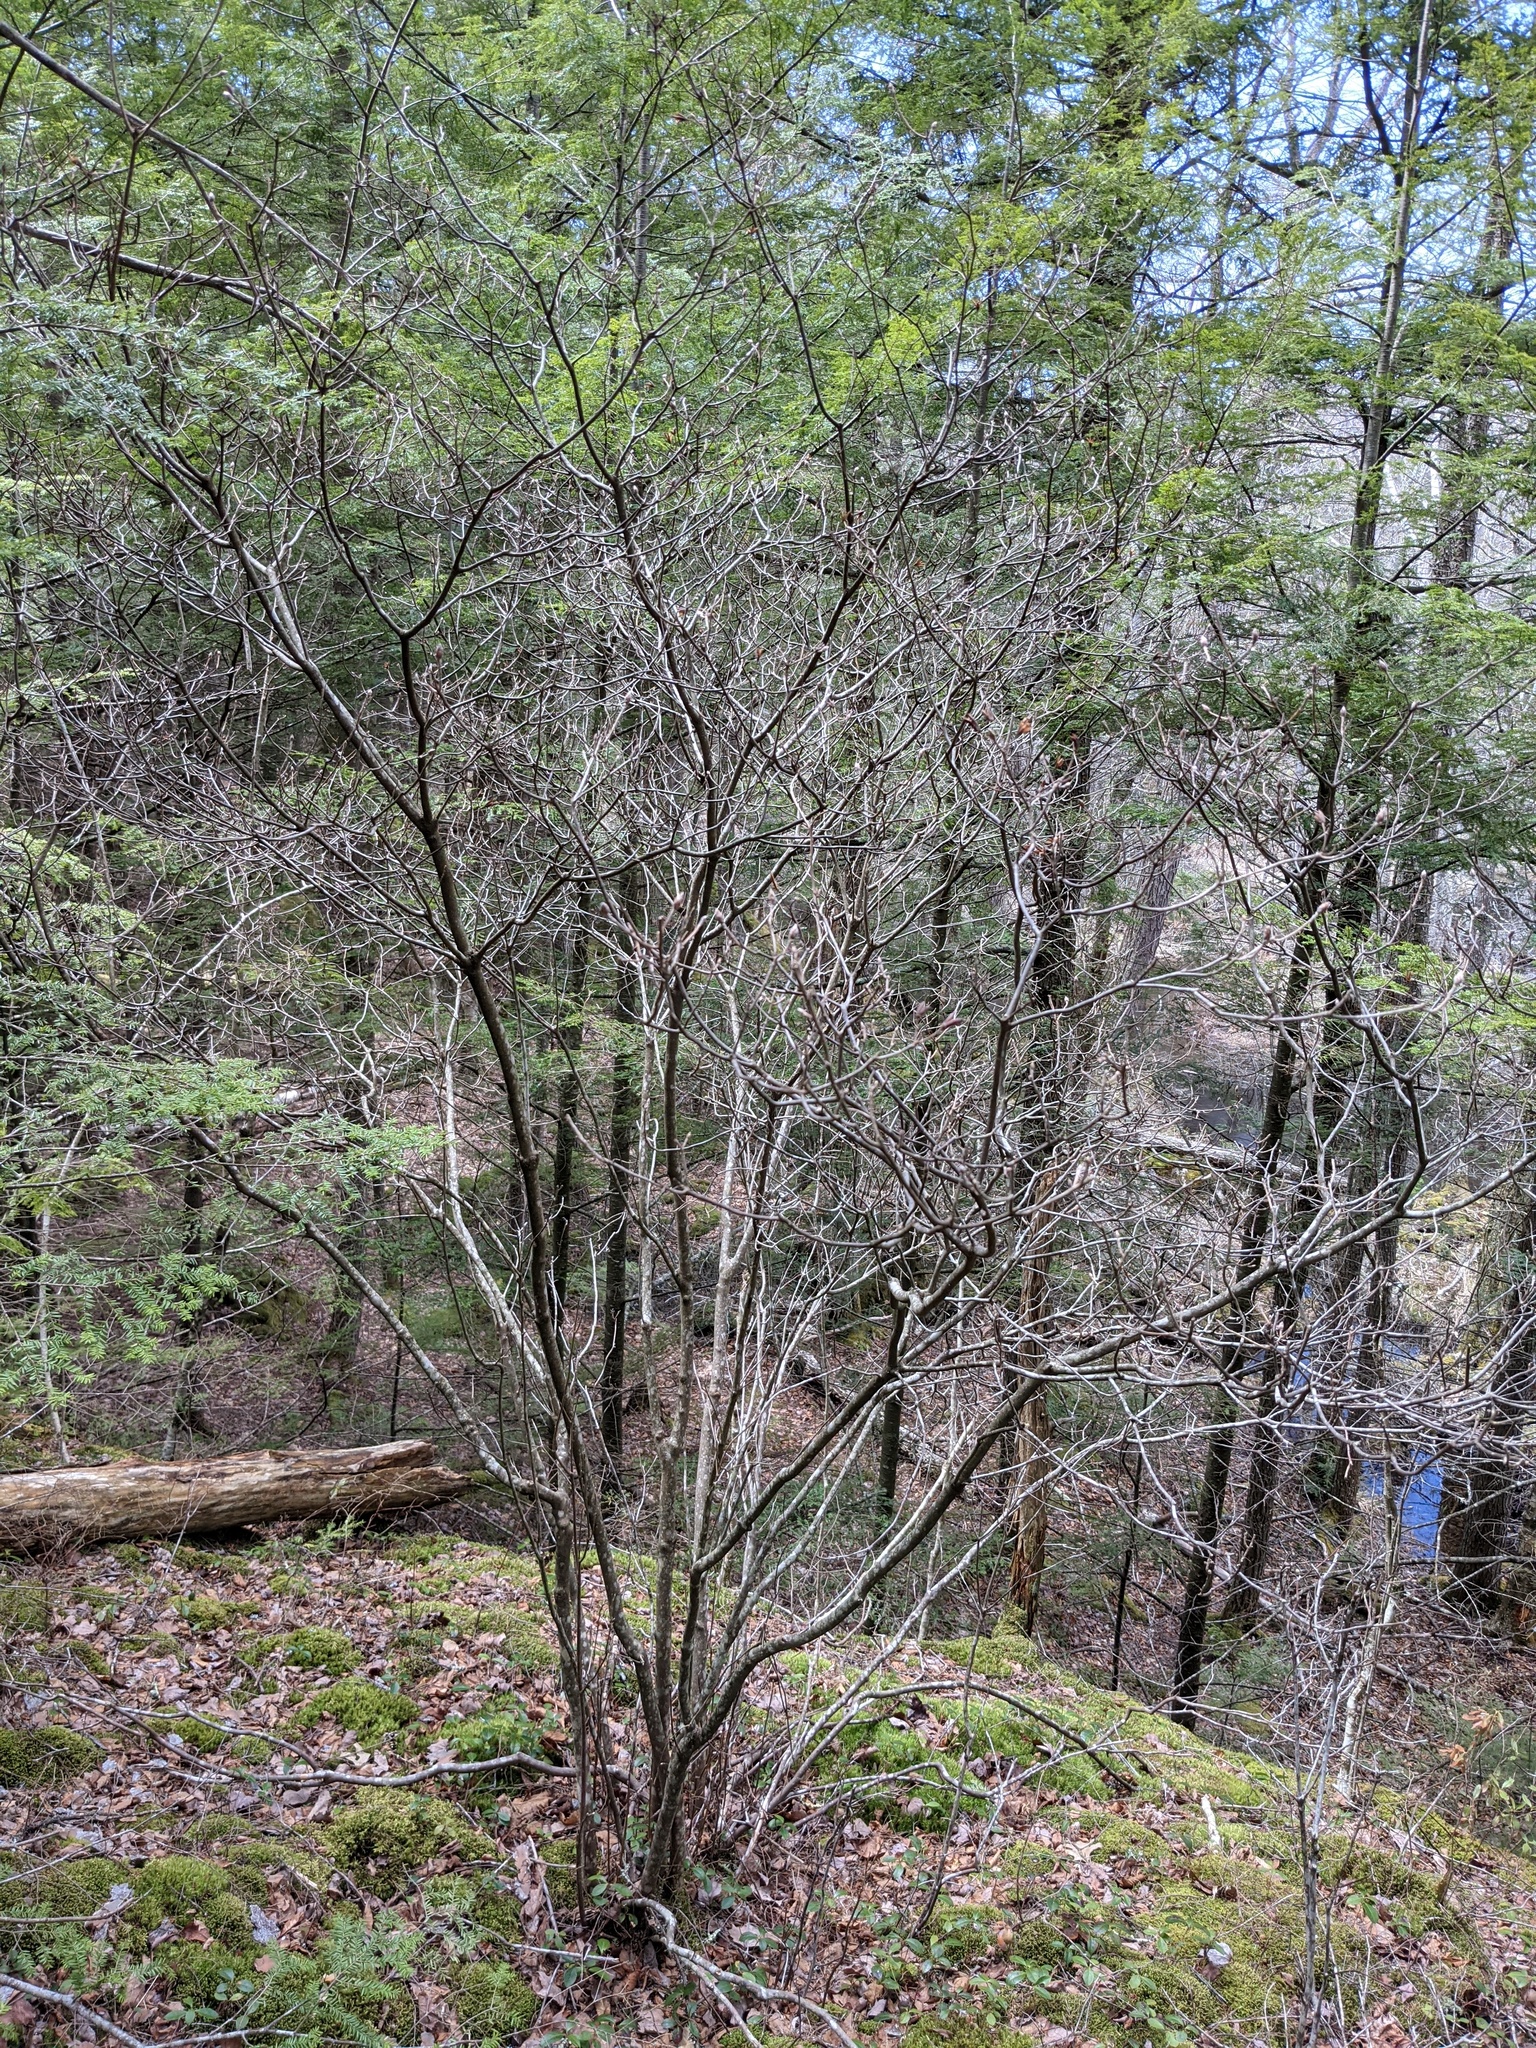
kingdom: Plantae
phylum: Tracheophyta
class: Magnoliopsida
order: Ericales
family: Ericaceae
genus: Rhododendron
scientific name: Rhododendron roseum
